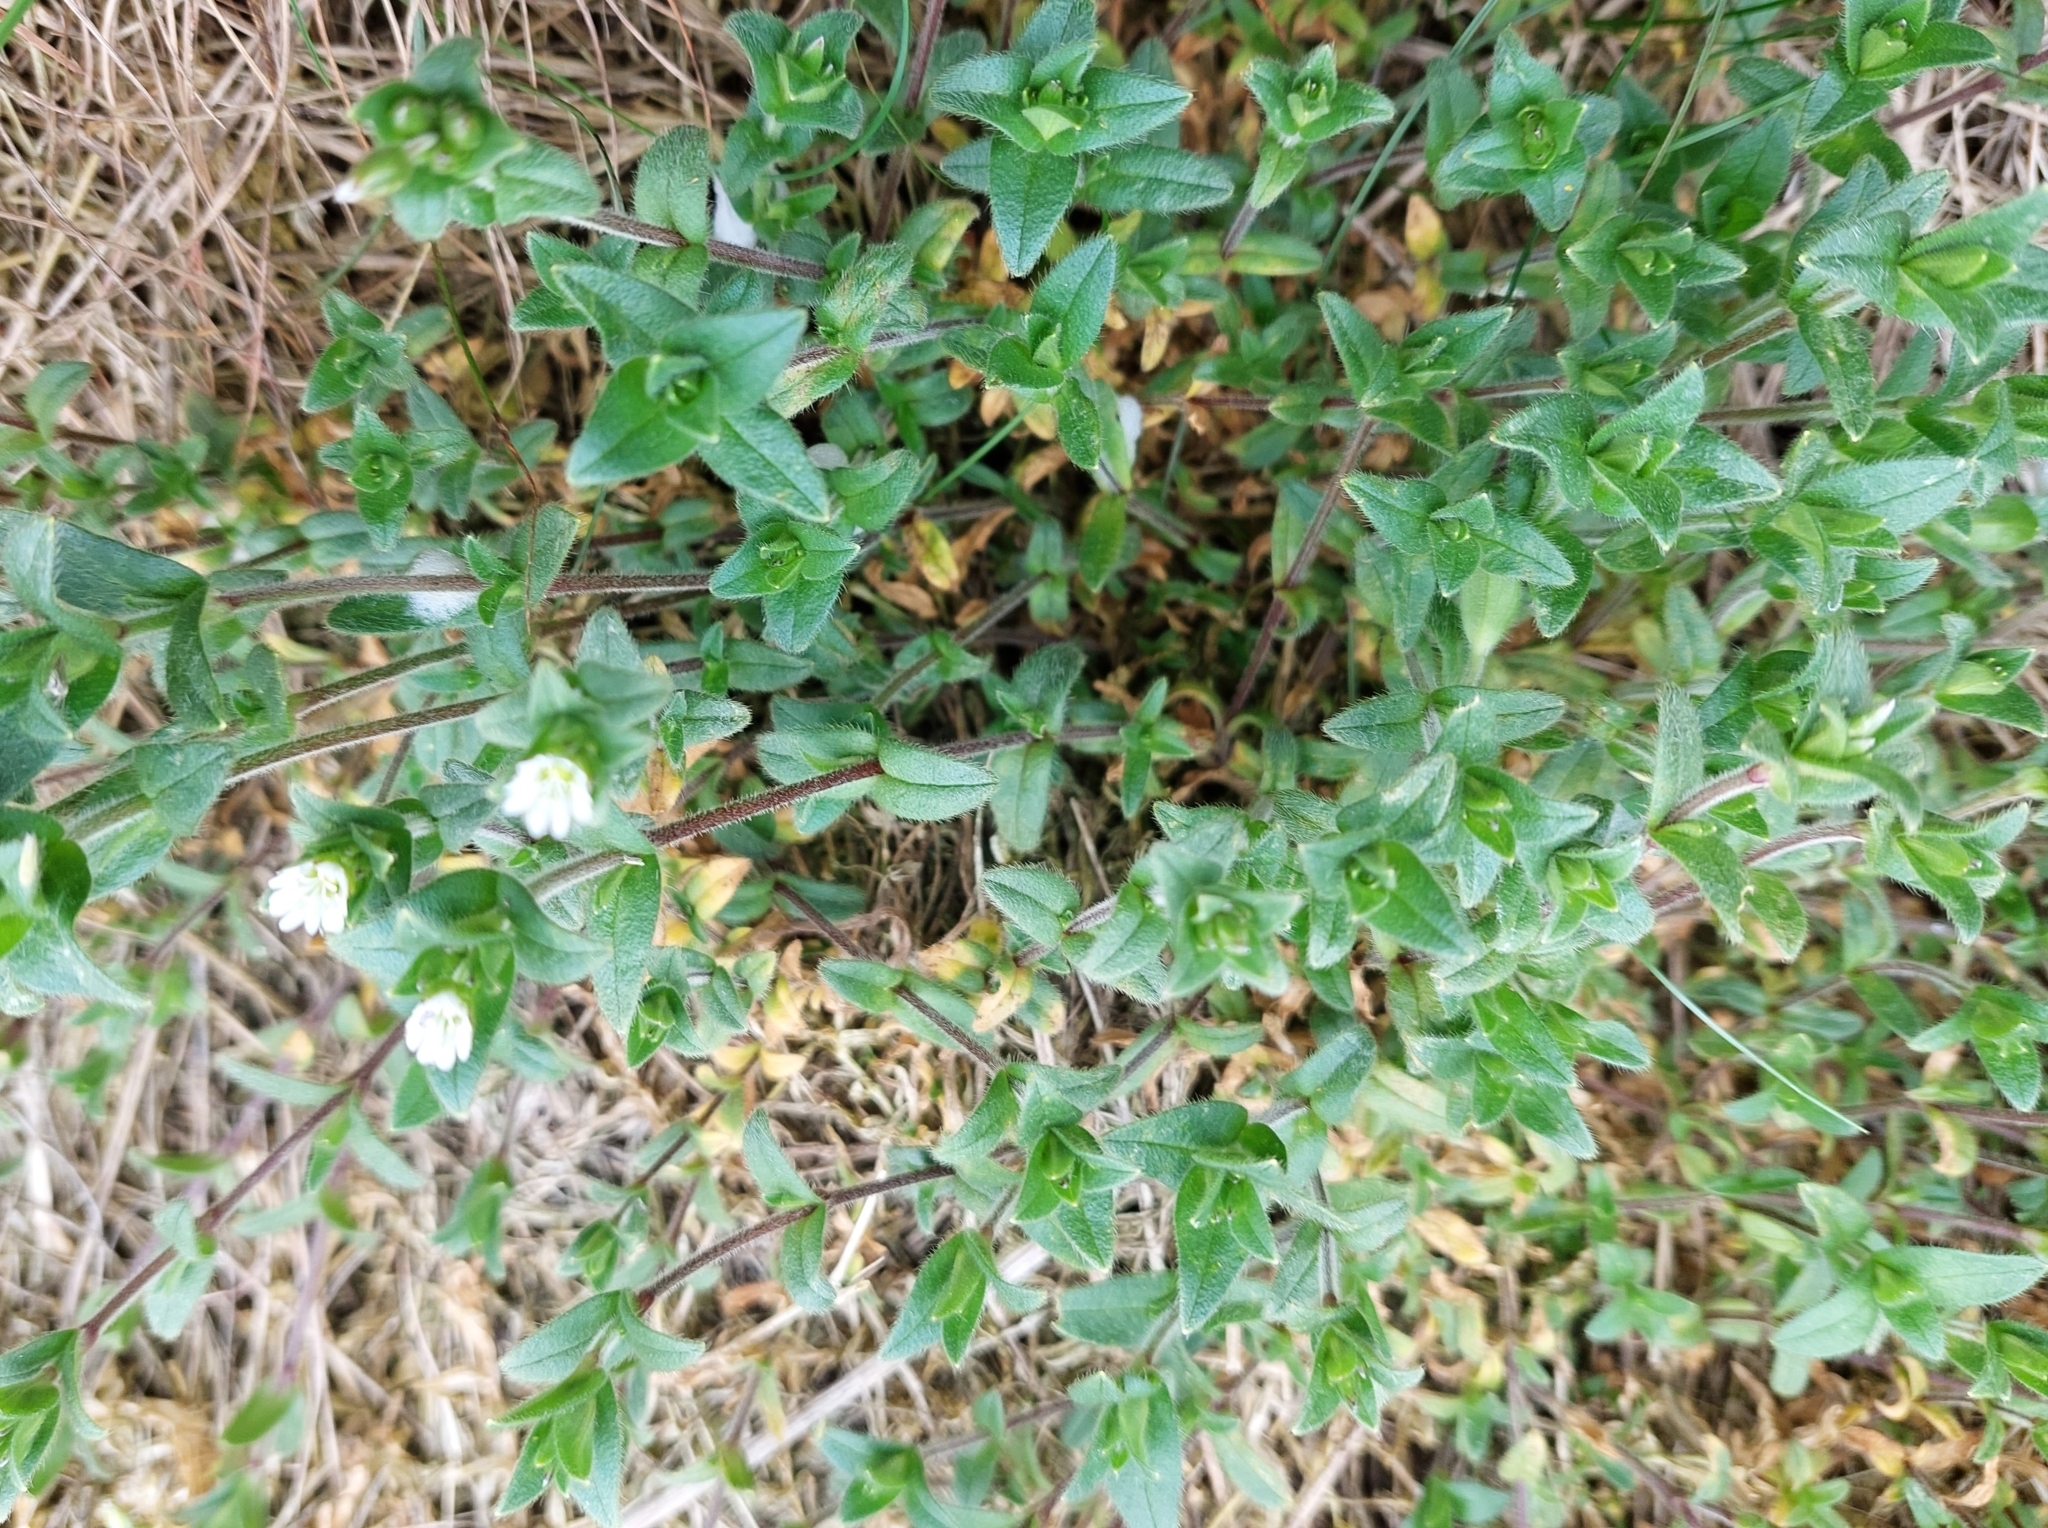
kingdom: Plantae
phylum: Tracheophyta
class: Magnoliopsida
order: Caryophyllales
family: Caryophyllaceae
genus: Cerastium
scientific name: Cerastium fontanum
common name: Common mouse-ear
